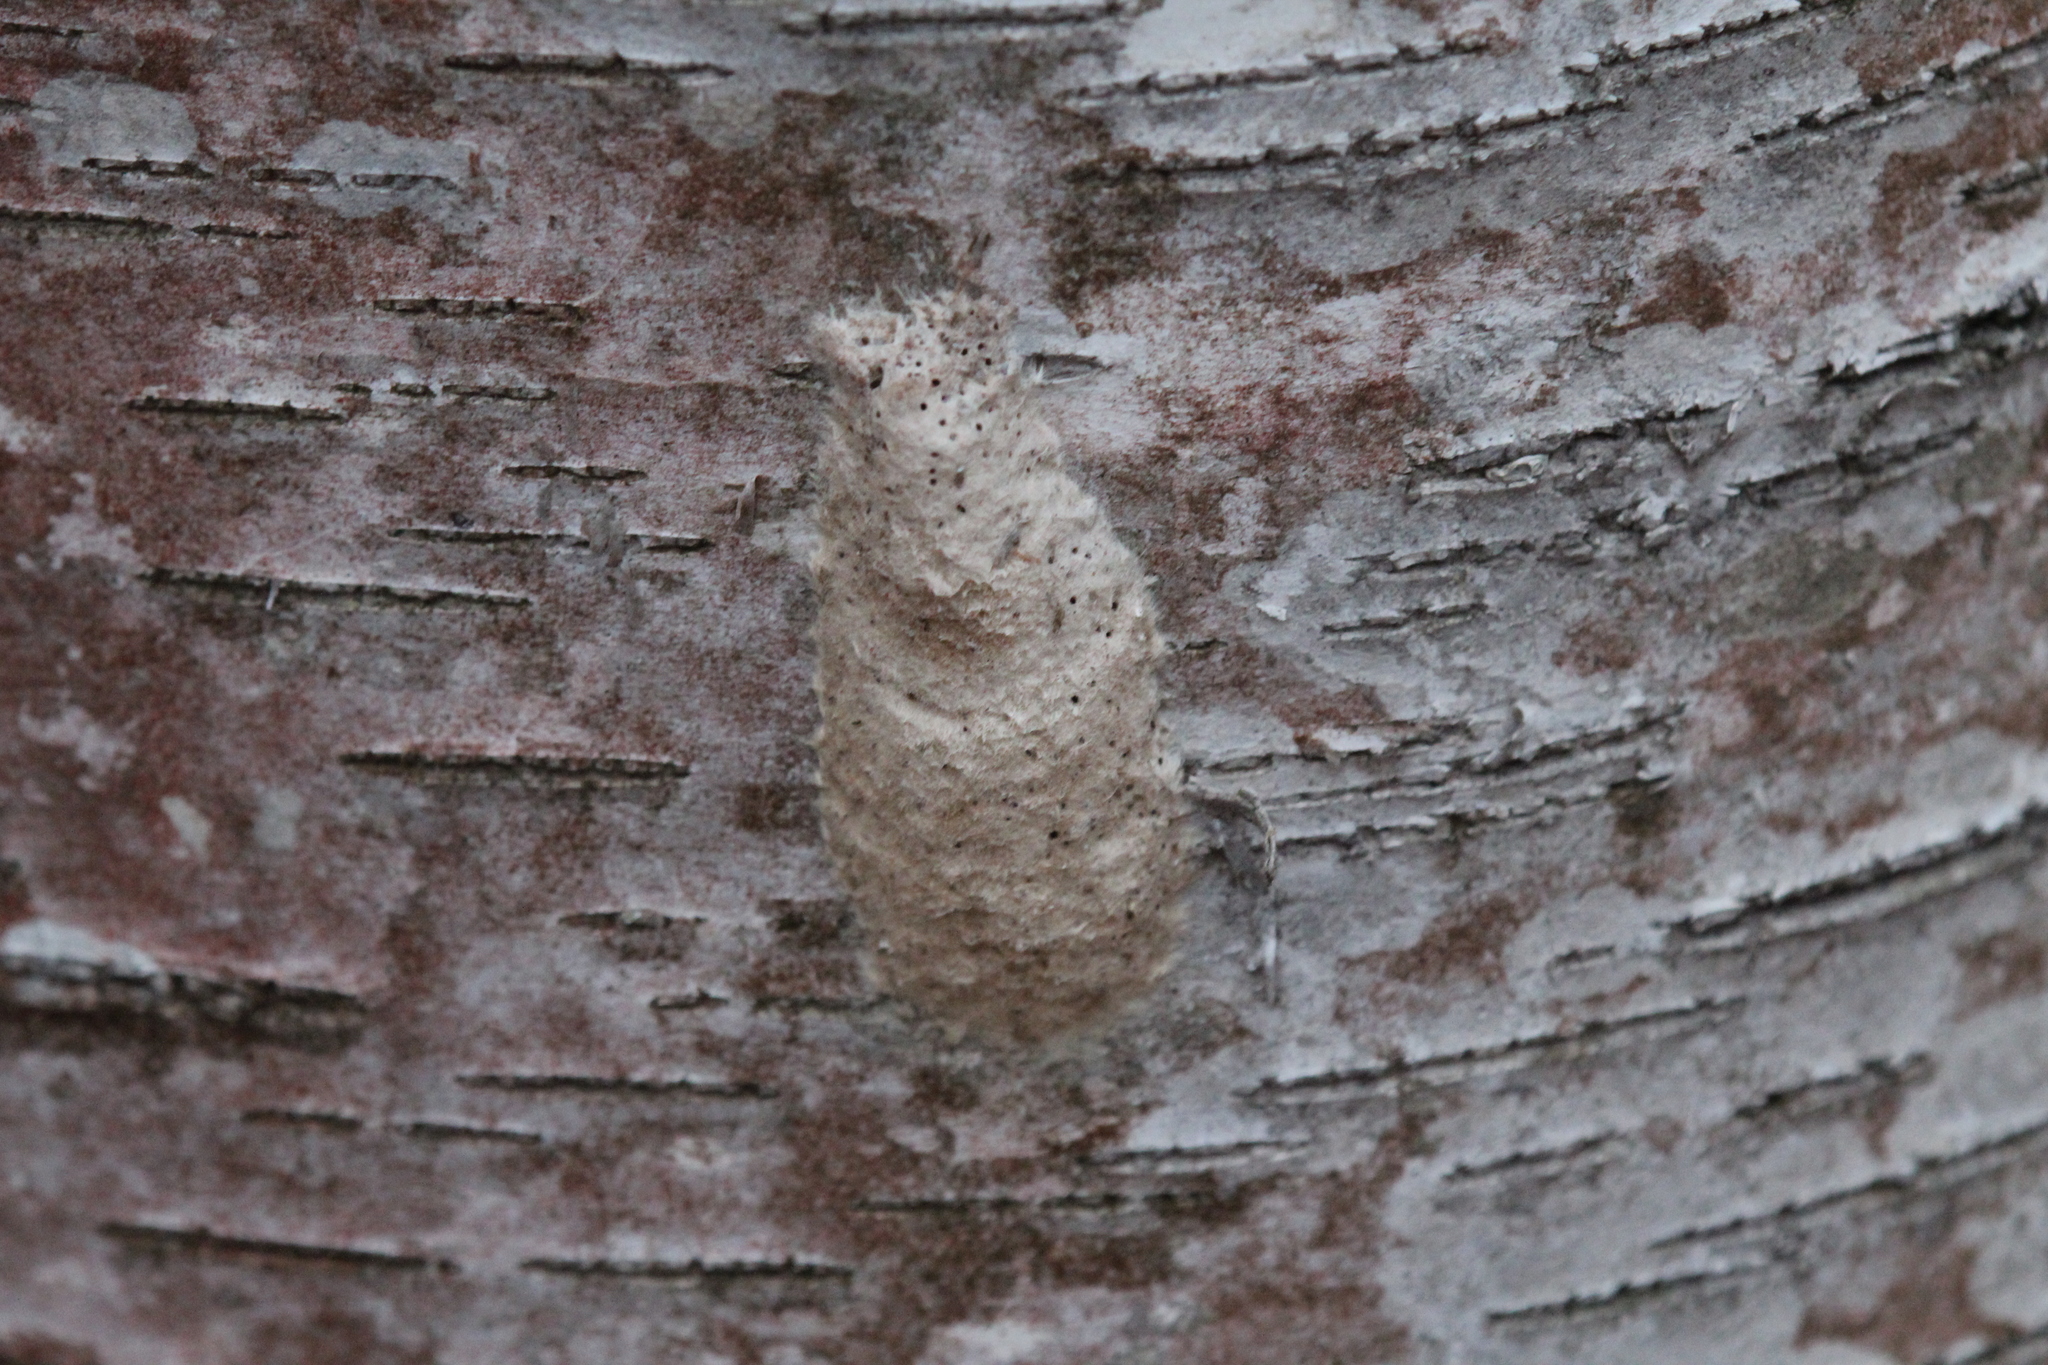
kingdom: Animalia
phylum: Arthropoda
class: Insecta
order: Lepidoptera
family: Erebidae
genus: Lymantria
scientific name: Lymantria dispar
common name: Gypsy moth
